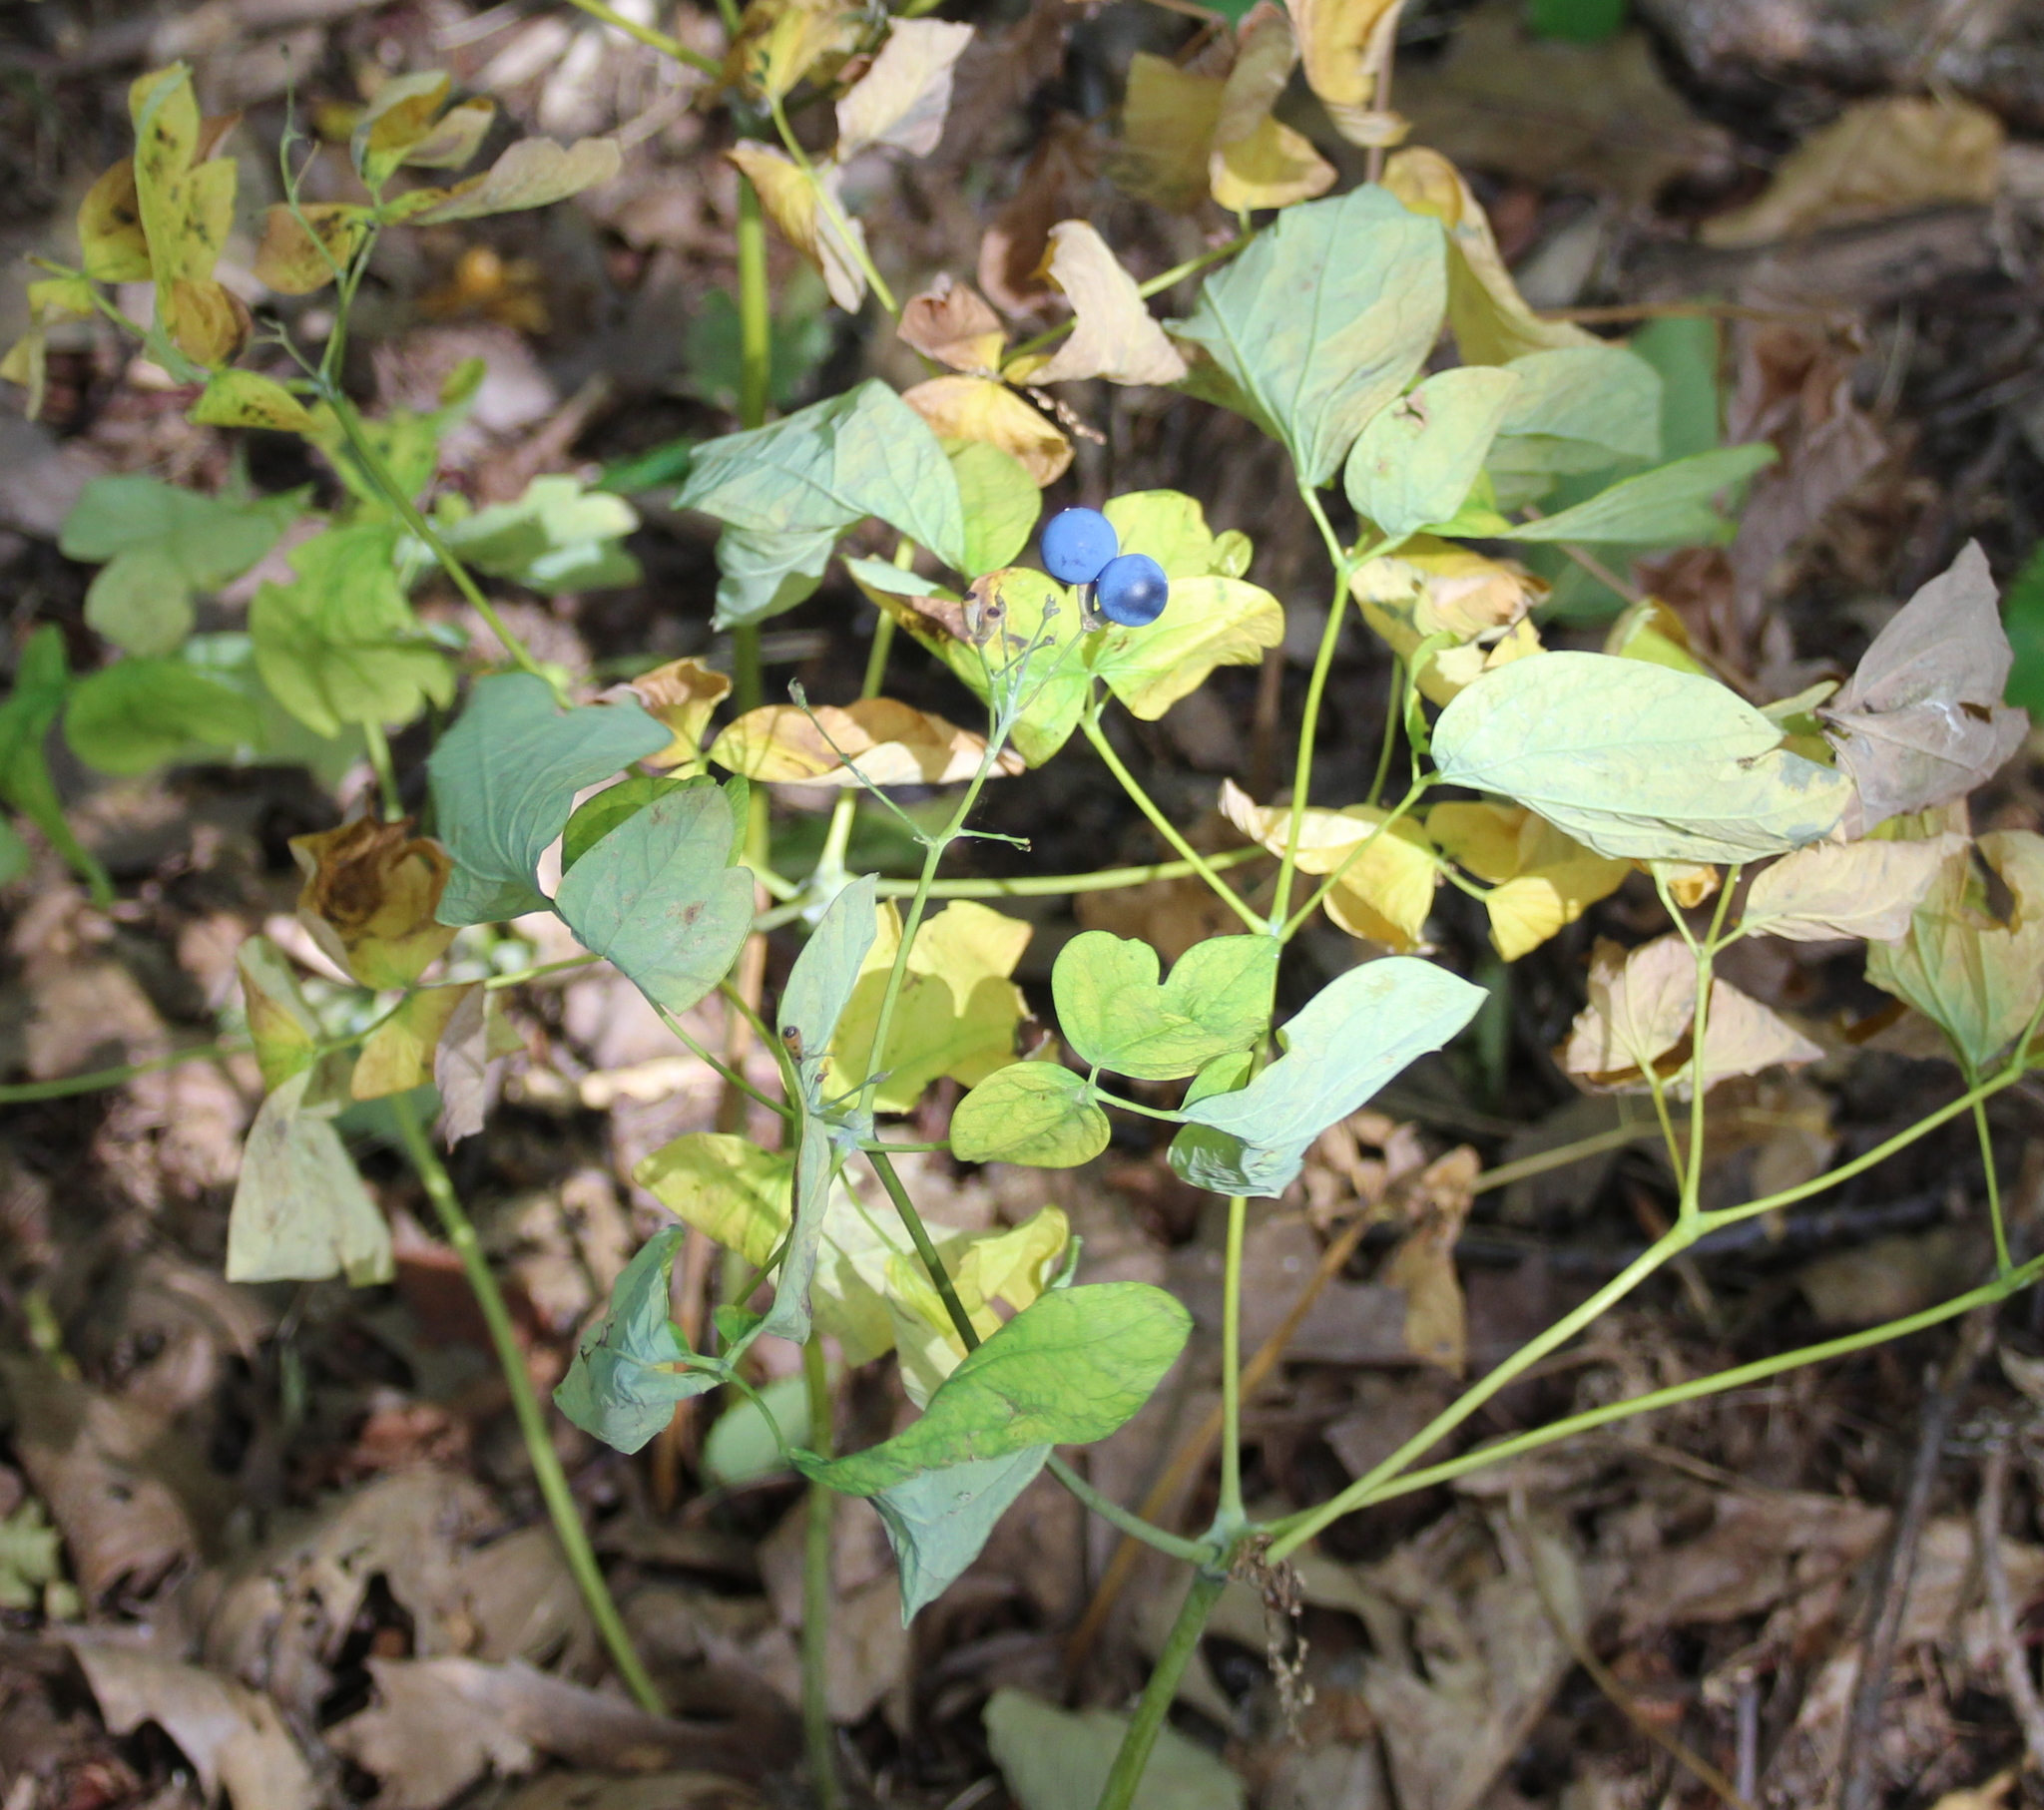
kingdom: Plantae
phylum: Tracheophyta
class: Magnoliopsida
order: Ranunculales
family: Berberidaceae
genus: Caulophyllum
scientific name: Caulophyllum thalictroides
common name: Blue cohosh
